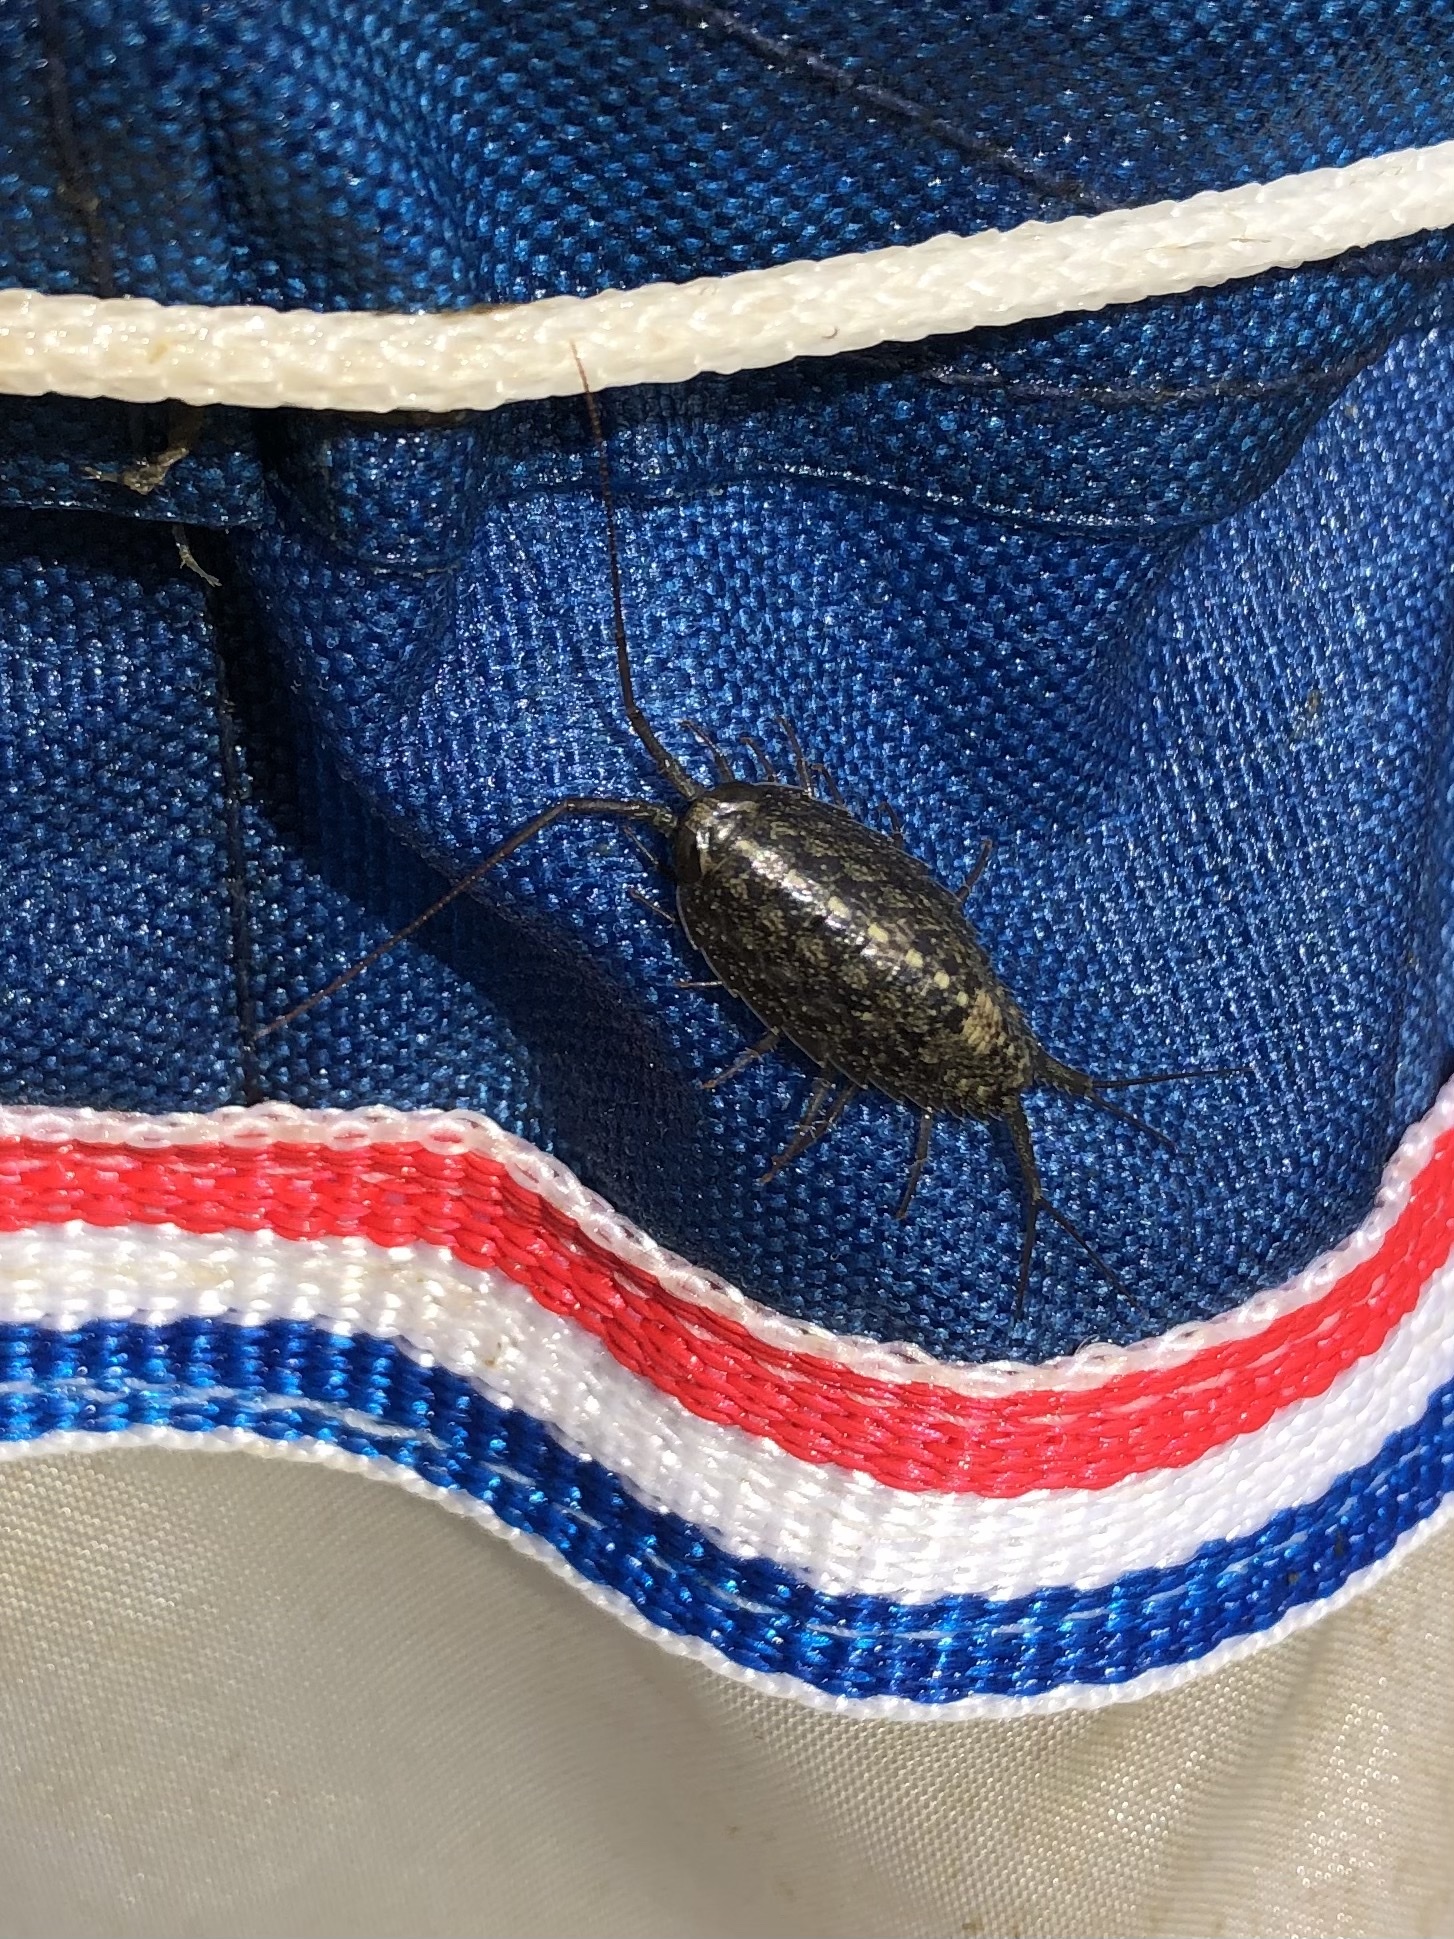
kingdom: Animalia
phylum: Arthropoda
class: Malacostraca
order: Isopoda
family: Ligiidae
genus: Ligia
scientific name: Ligia exotica
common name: Wharf roach
